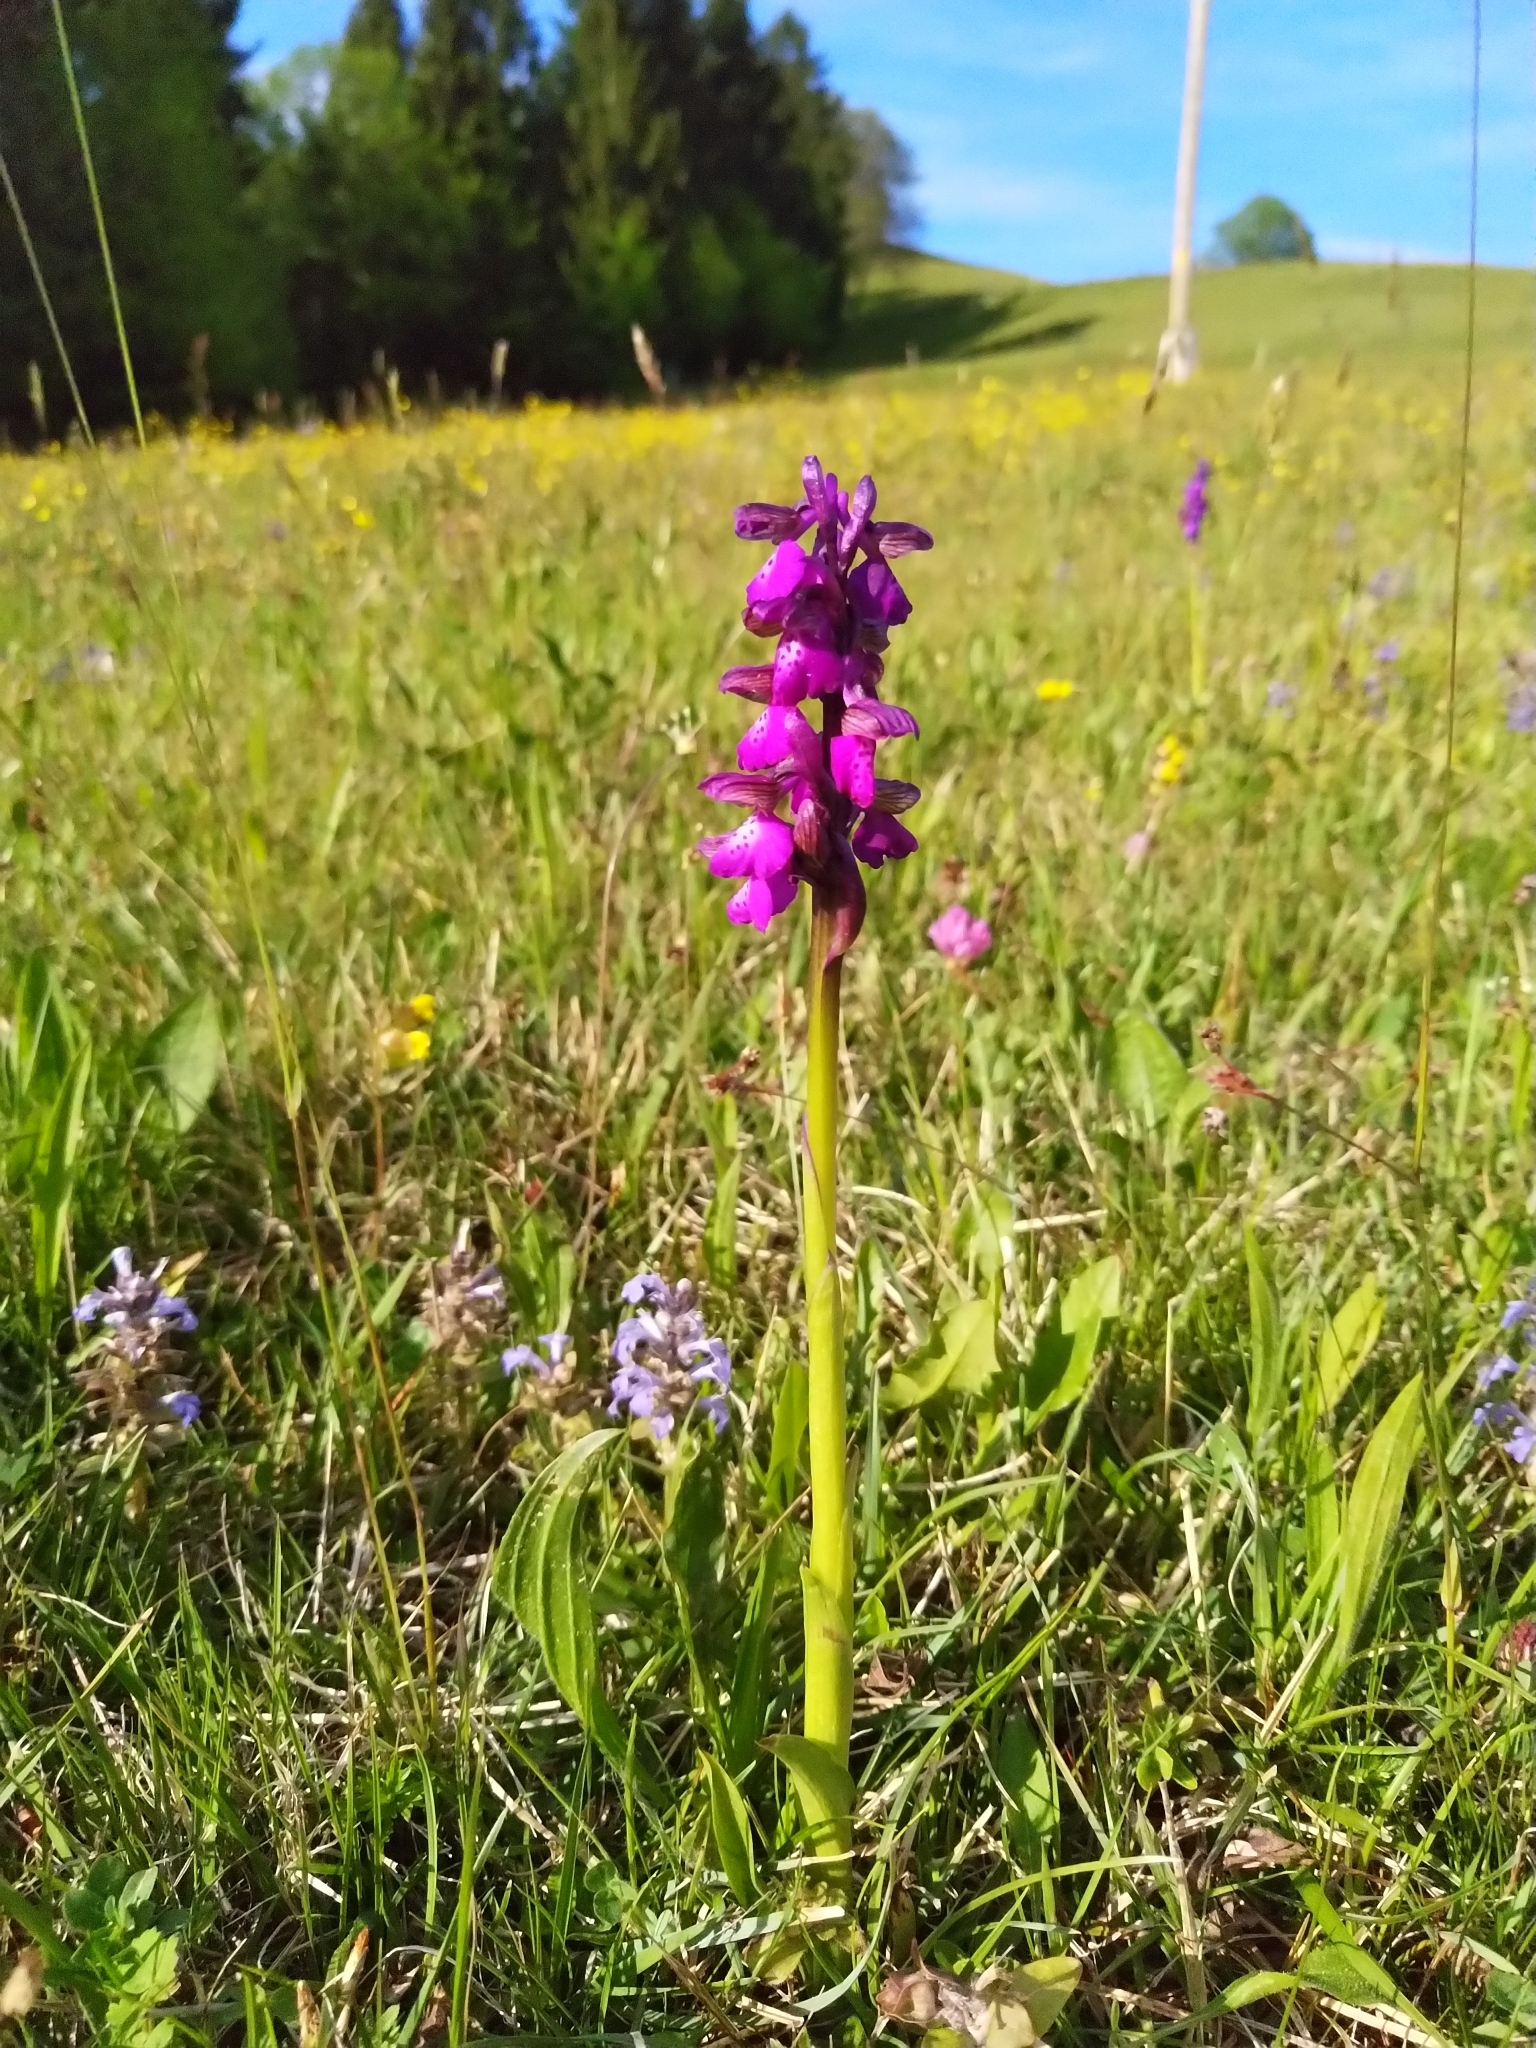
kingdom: Plantae
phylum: Tracheophyta
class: Liliopsida
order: Asparagales
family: Orchidaceae
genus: Anacamptis
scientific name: Anacamptis morio
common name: Green-winged orchid
